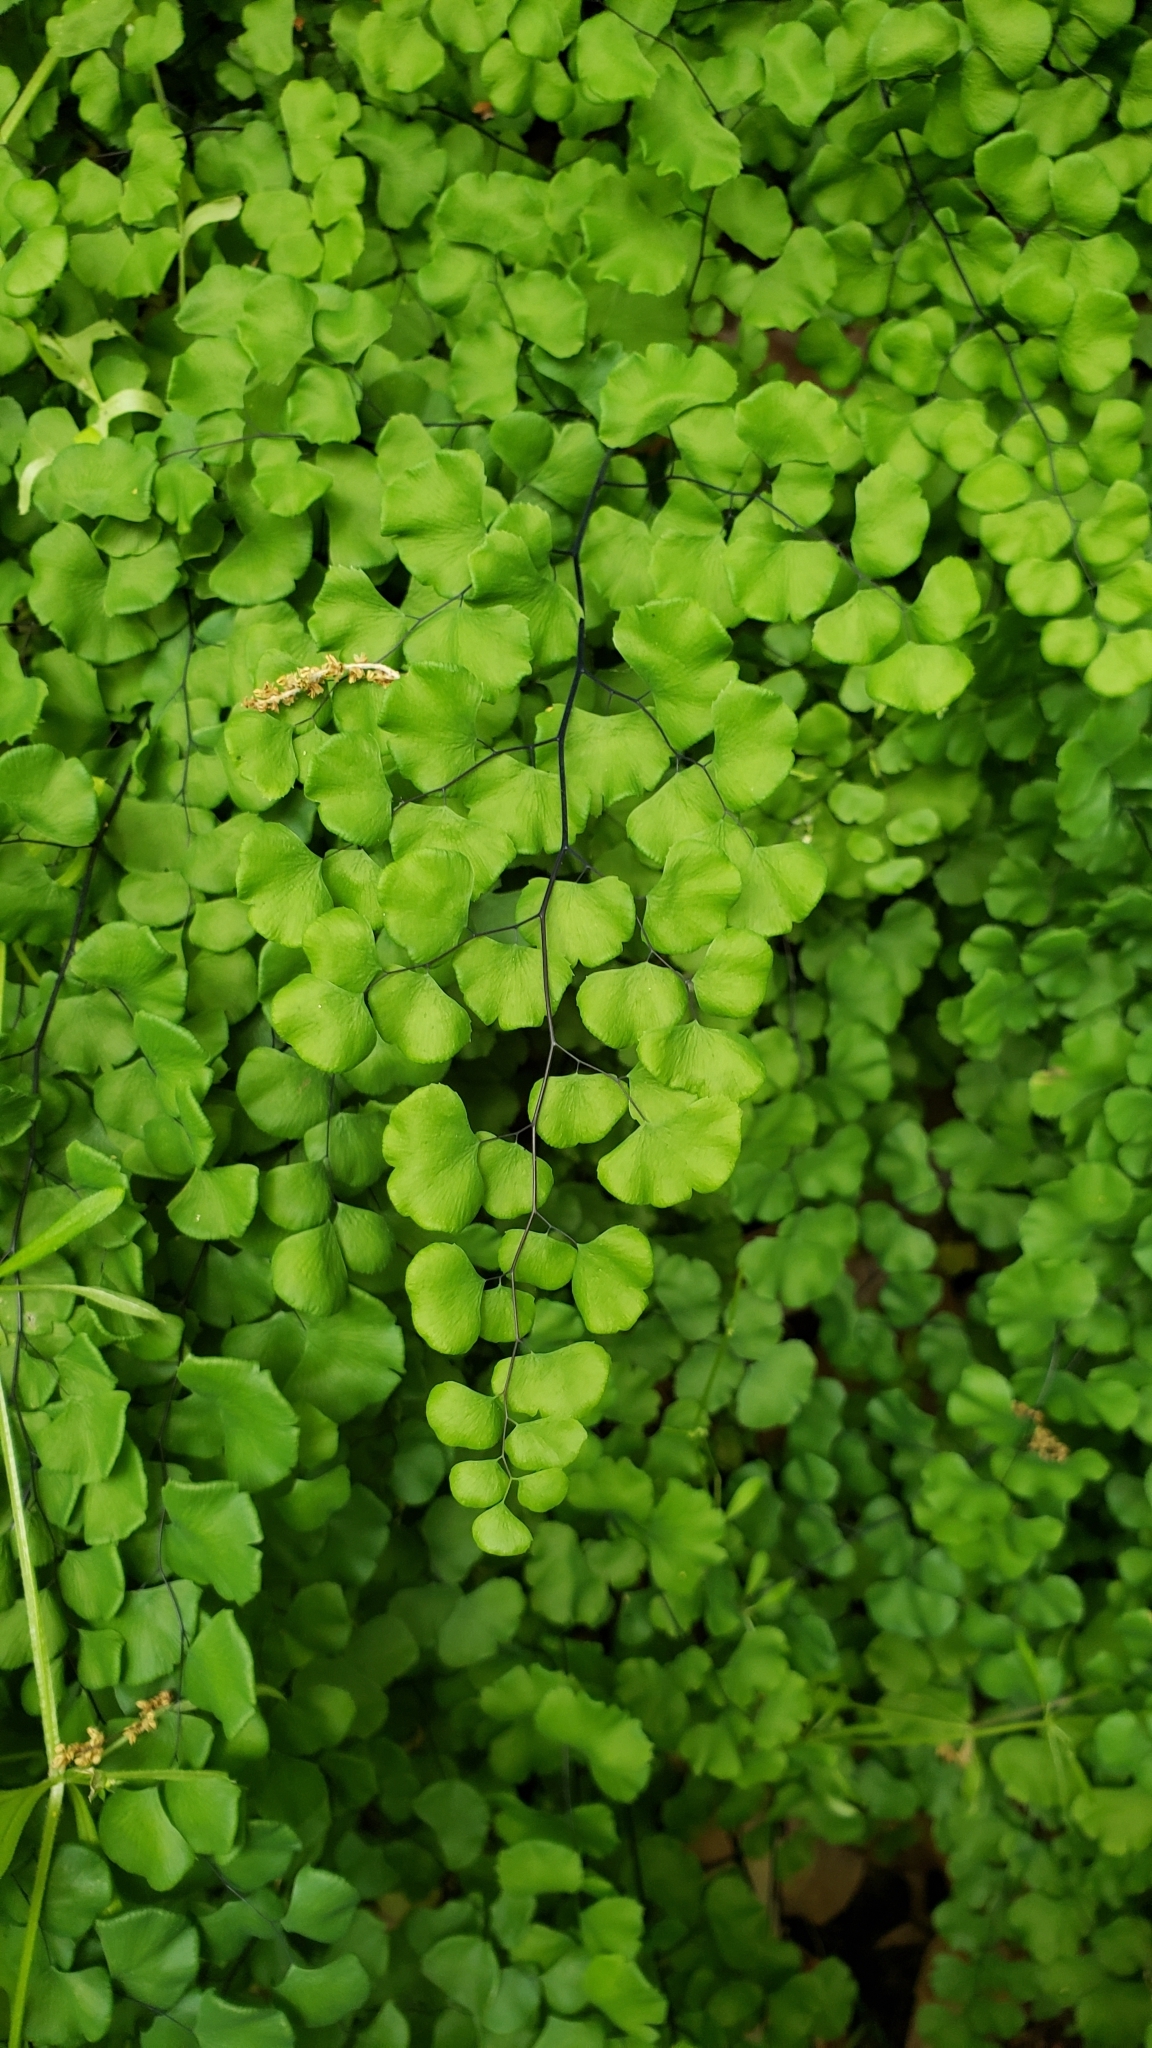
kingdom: Plantae
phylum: Tracheophyta
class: Polypodiopsida
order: Polypodiales
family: Pteridaceae
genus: Adiantum
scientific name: Adiantum jordanii
